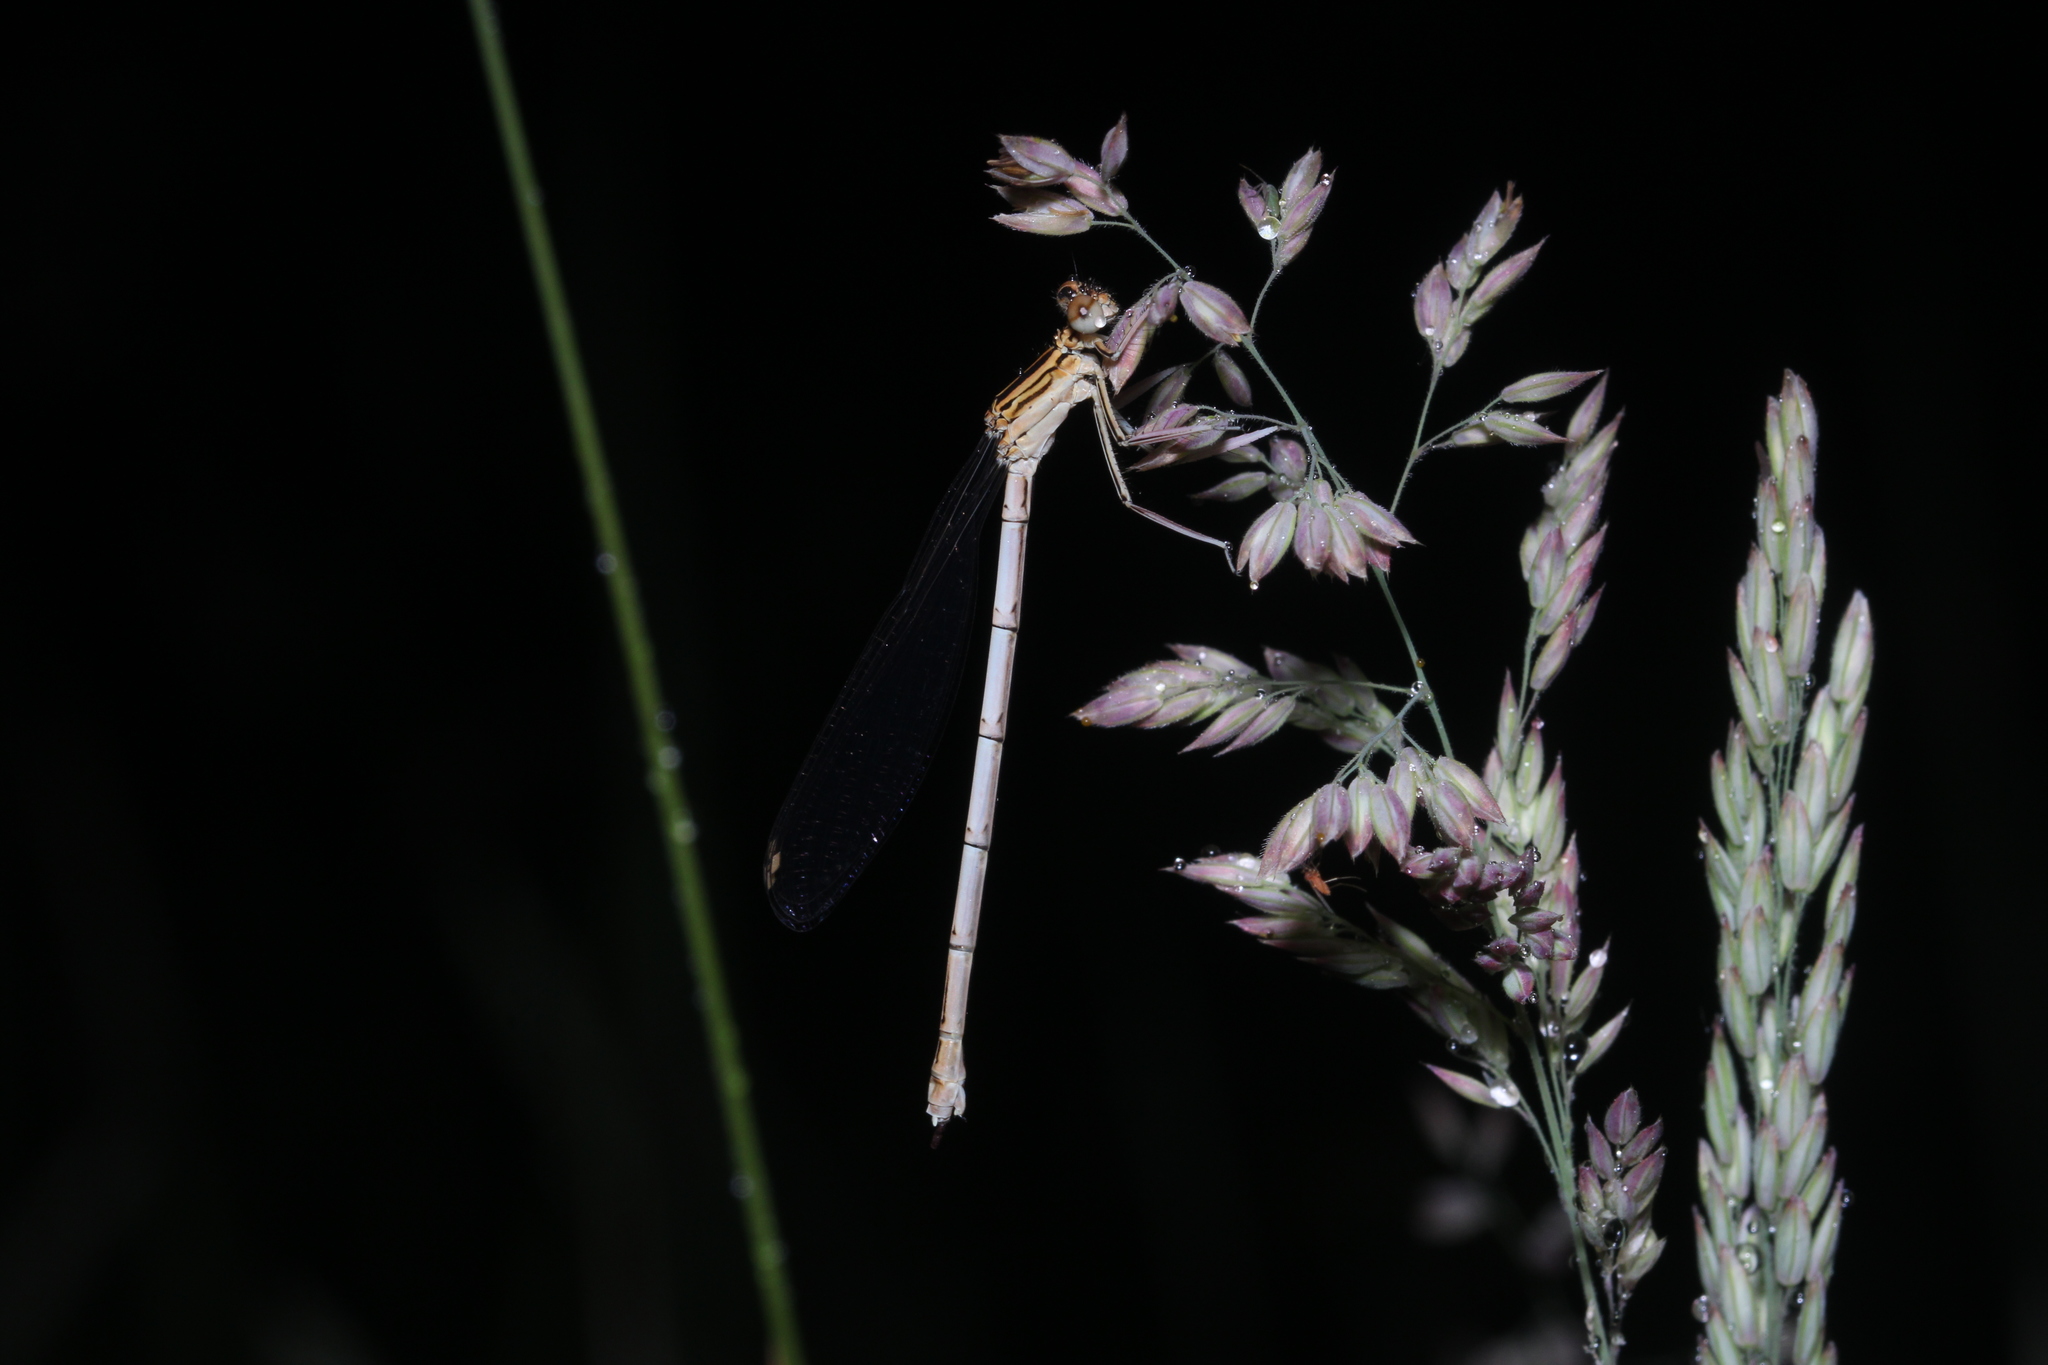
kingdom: Animalia
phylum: Arthropoda
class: Insecta
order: Odonata
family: Platycnemididae
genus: Platycnemis
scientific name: Platycnemis pennipes
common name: White-legged damselfly
